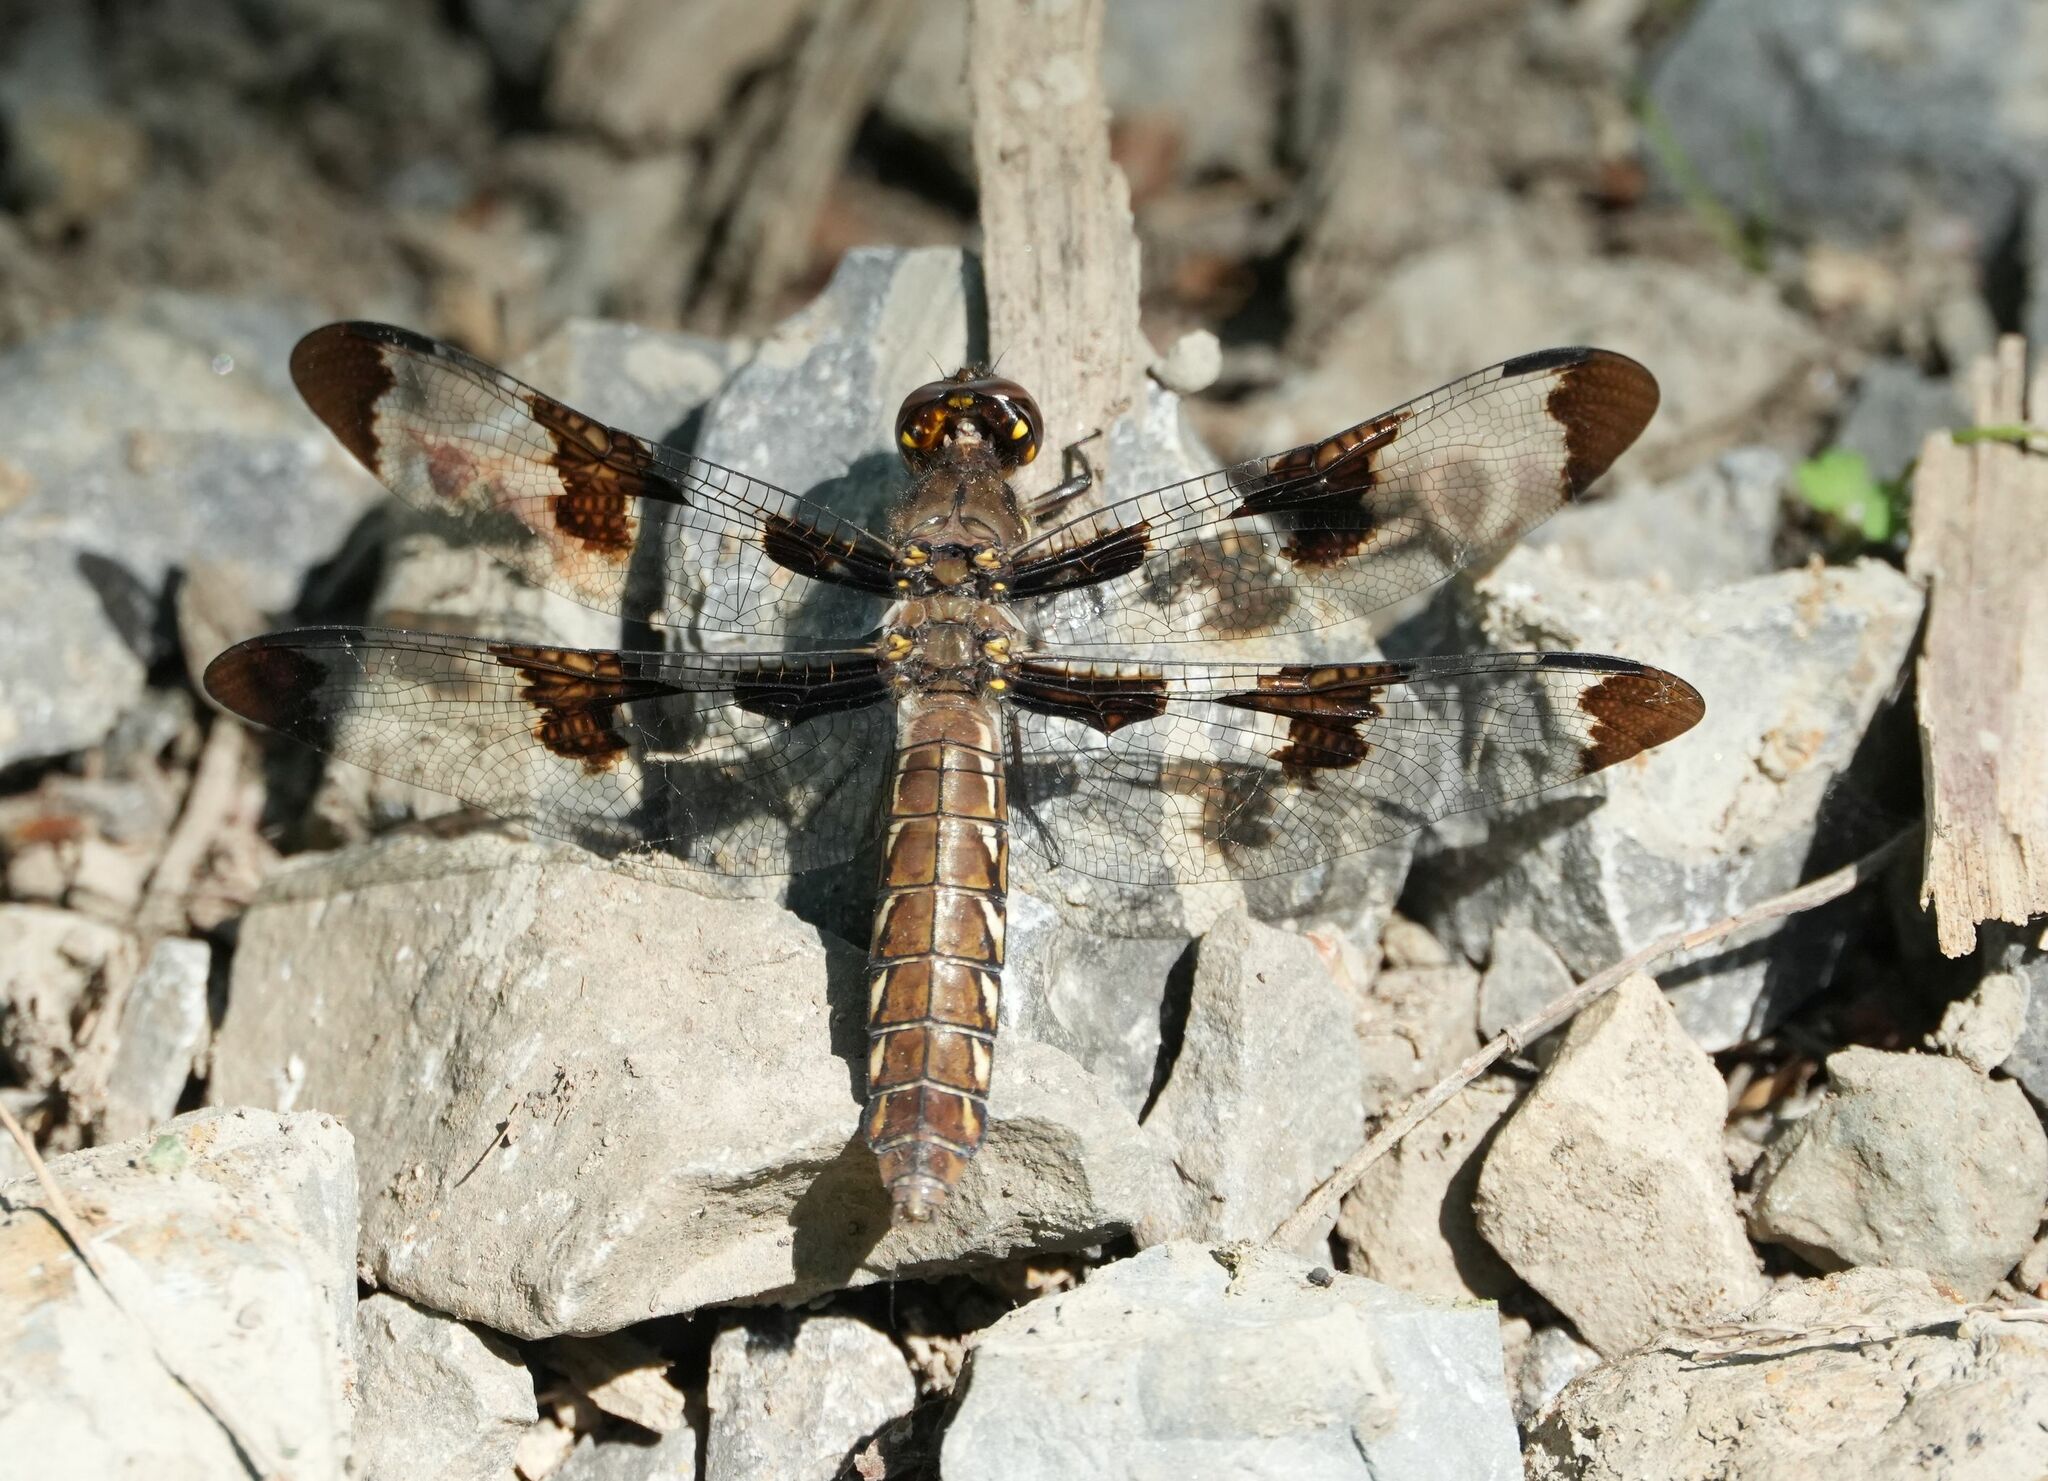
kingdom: Animalia
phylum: Arthropoda
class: Insecta
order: Odonata
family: Libellulidae
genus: Plathemis
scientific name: Plathemis lydia
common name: Common whitetail
